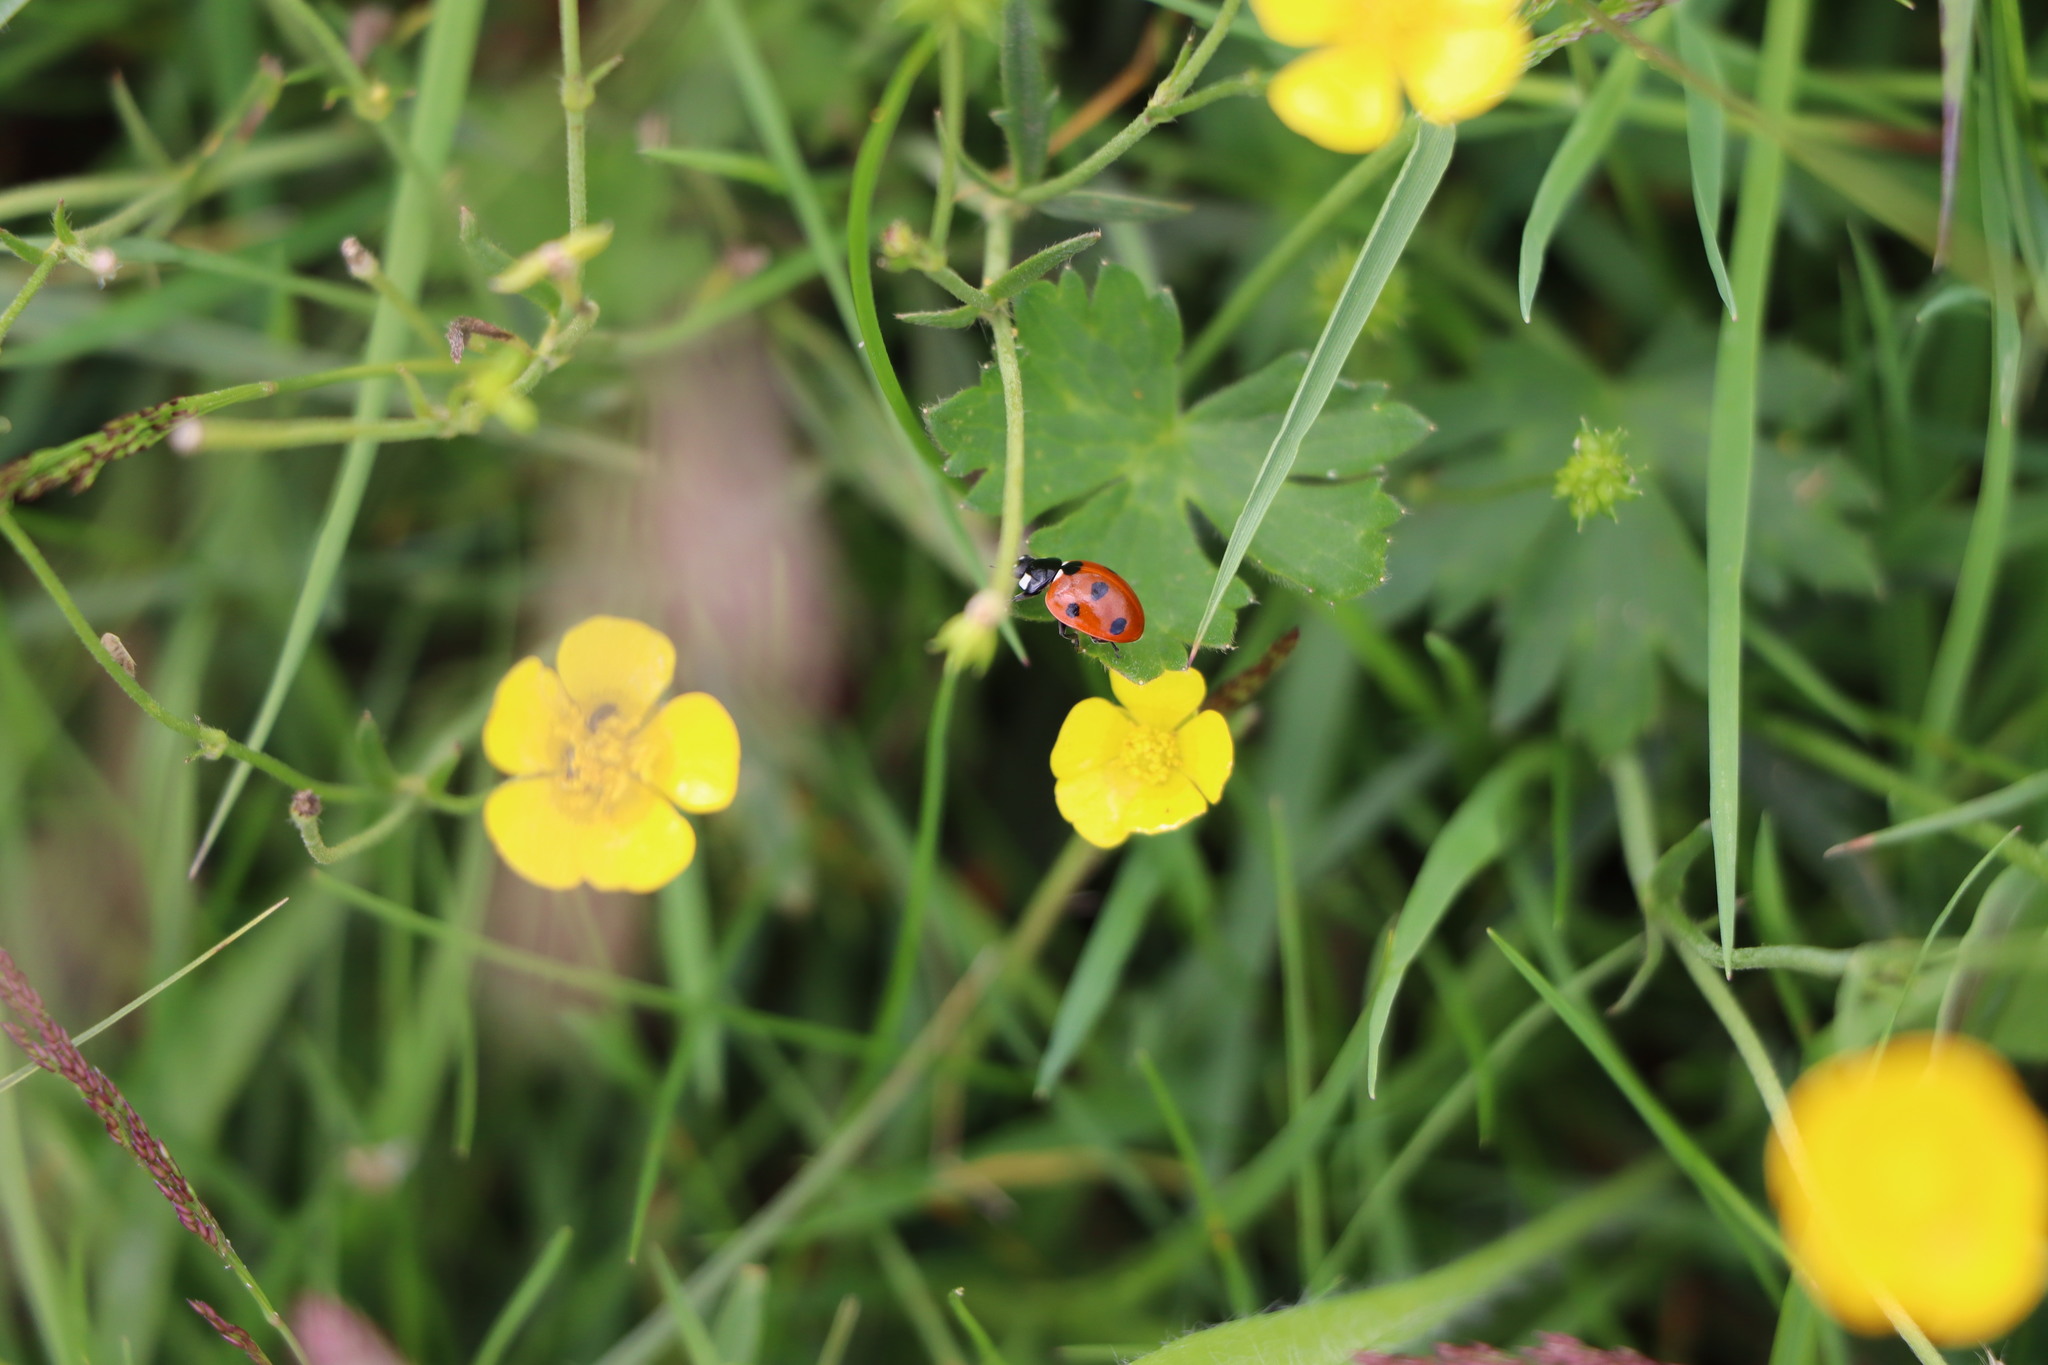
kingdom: Animalia
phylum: Arthropoda
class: Insecta
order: Coleoptera
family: Coccinellidae
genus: Coccinella
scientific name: Coccinella septempunctata
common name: Sevenspotted lady beetle
